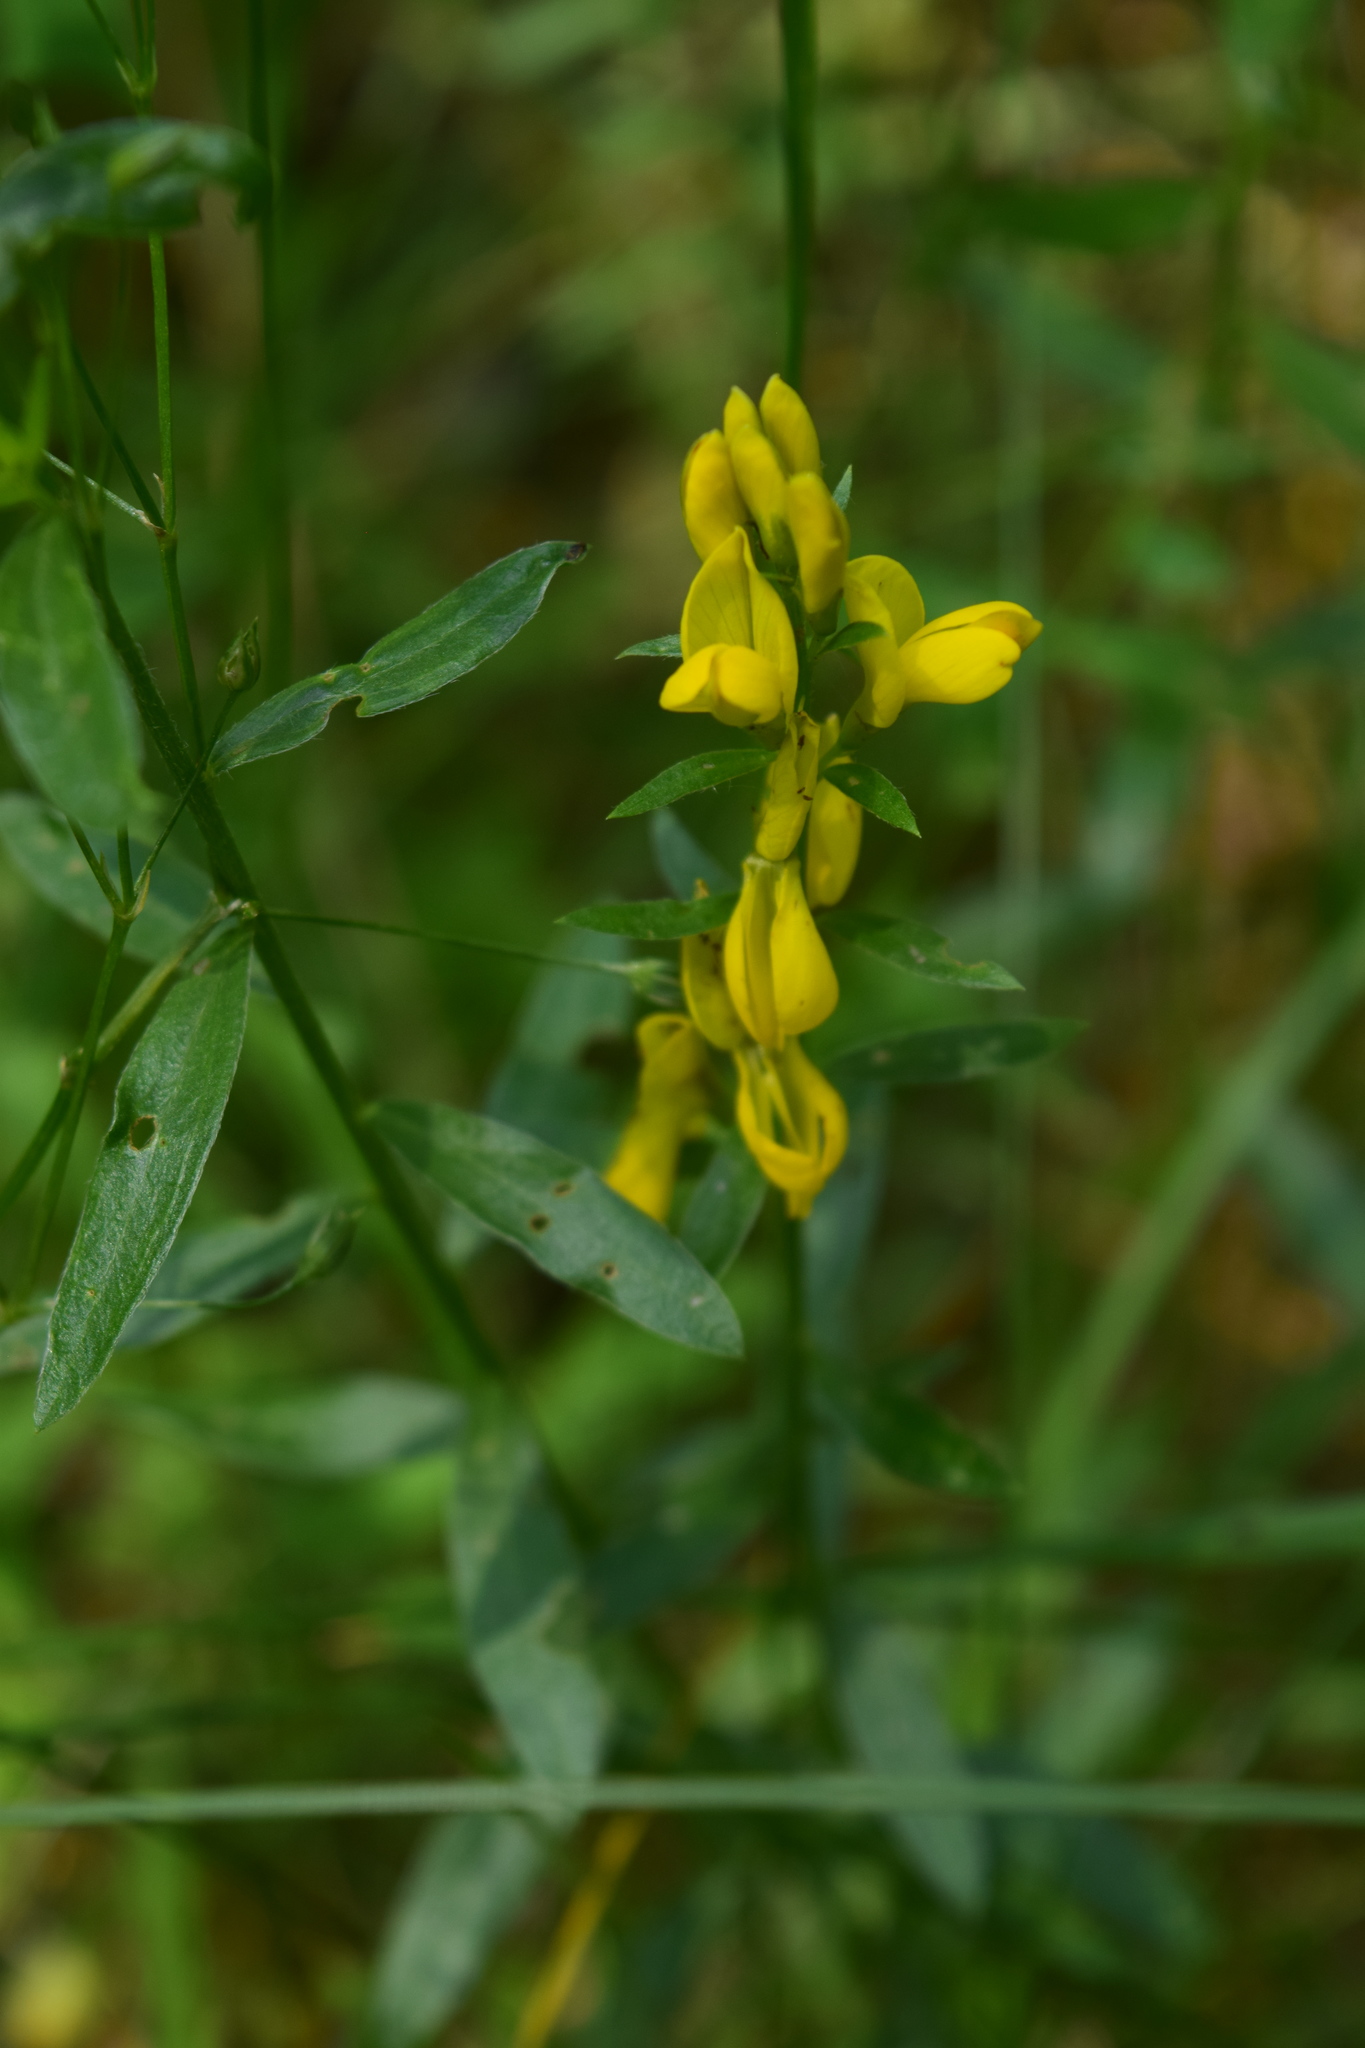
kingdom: Plantae
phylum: Tracheophyta
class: Magnoliopsida
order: Fabales
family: Fabaceae
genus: Genista
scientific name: Genista tinctoria
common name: Dyer's greenweed
